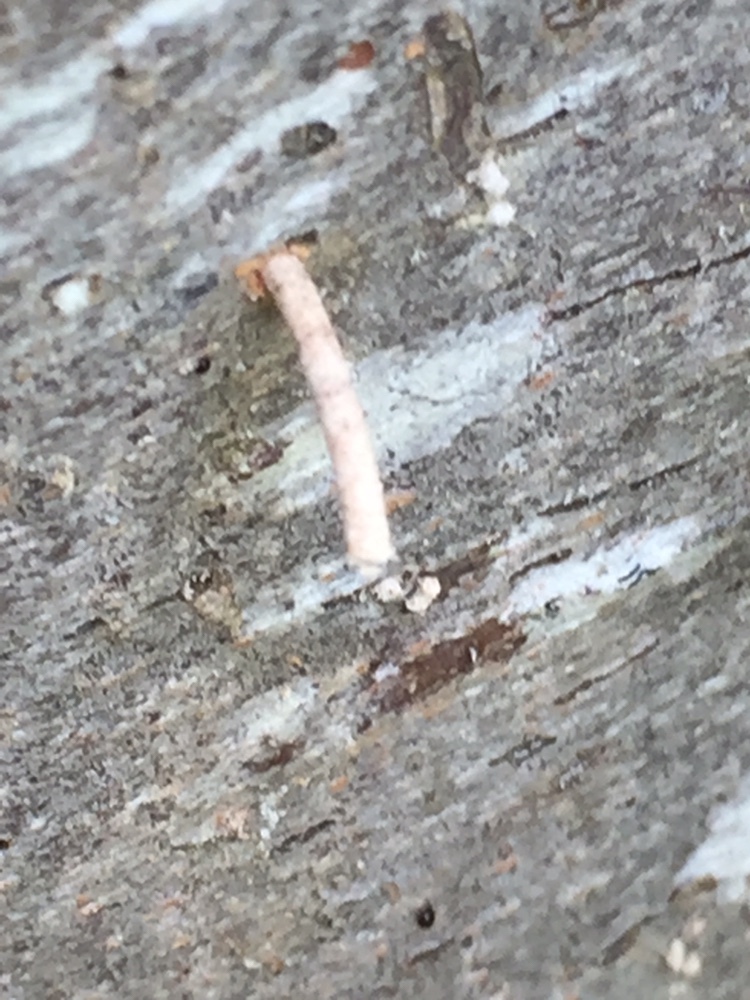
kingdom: Animalia
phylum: Arthropoda
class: Insecta
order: Coleoptera
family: Curculionidae
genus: Xylosandrus
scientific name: Xylosandrus crassiusculus
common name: Granulate ambrosia beetle
